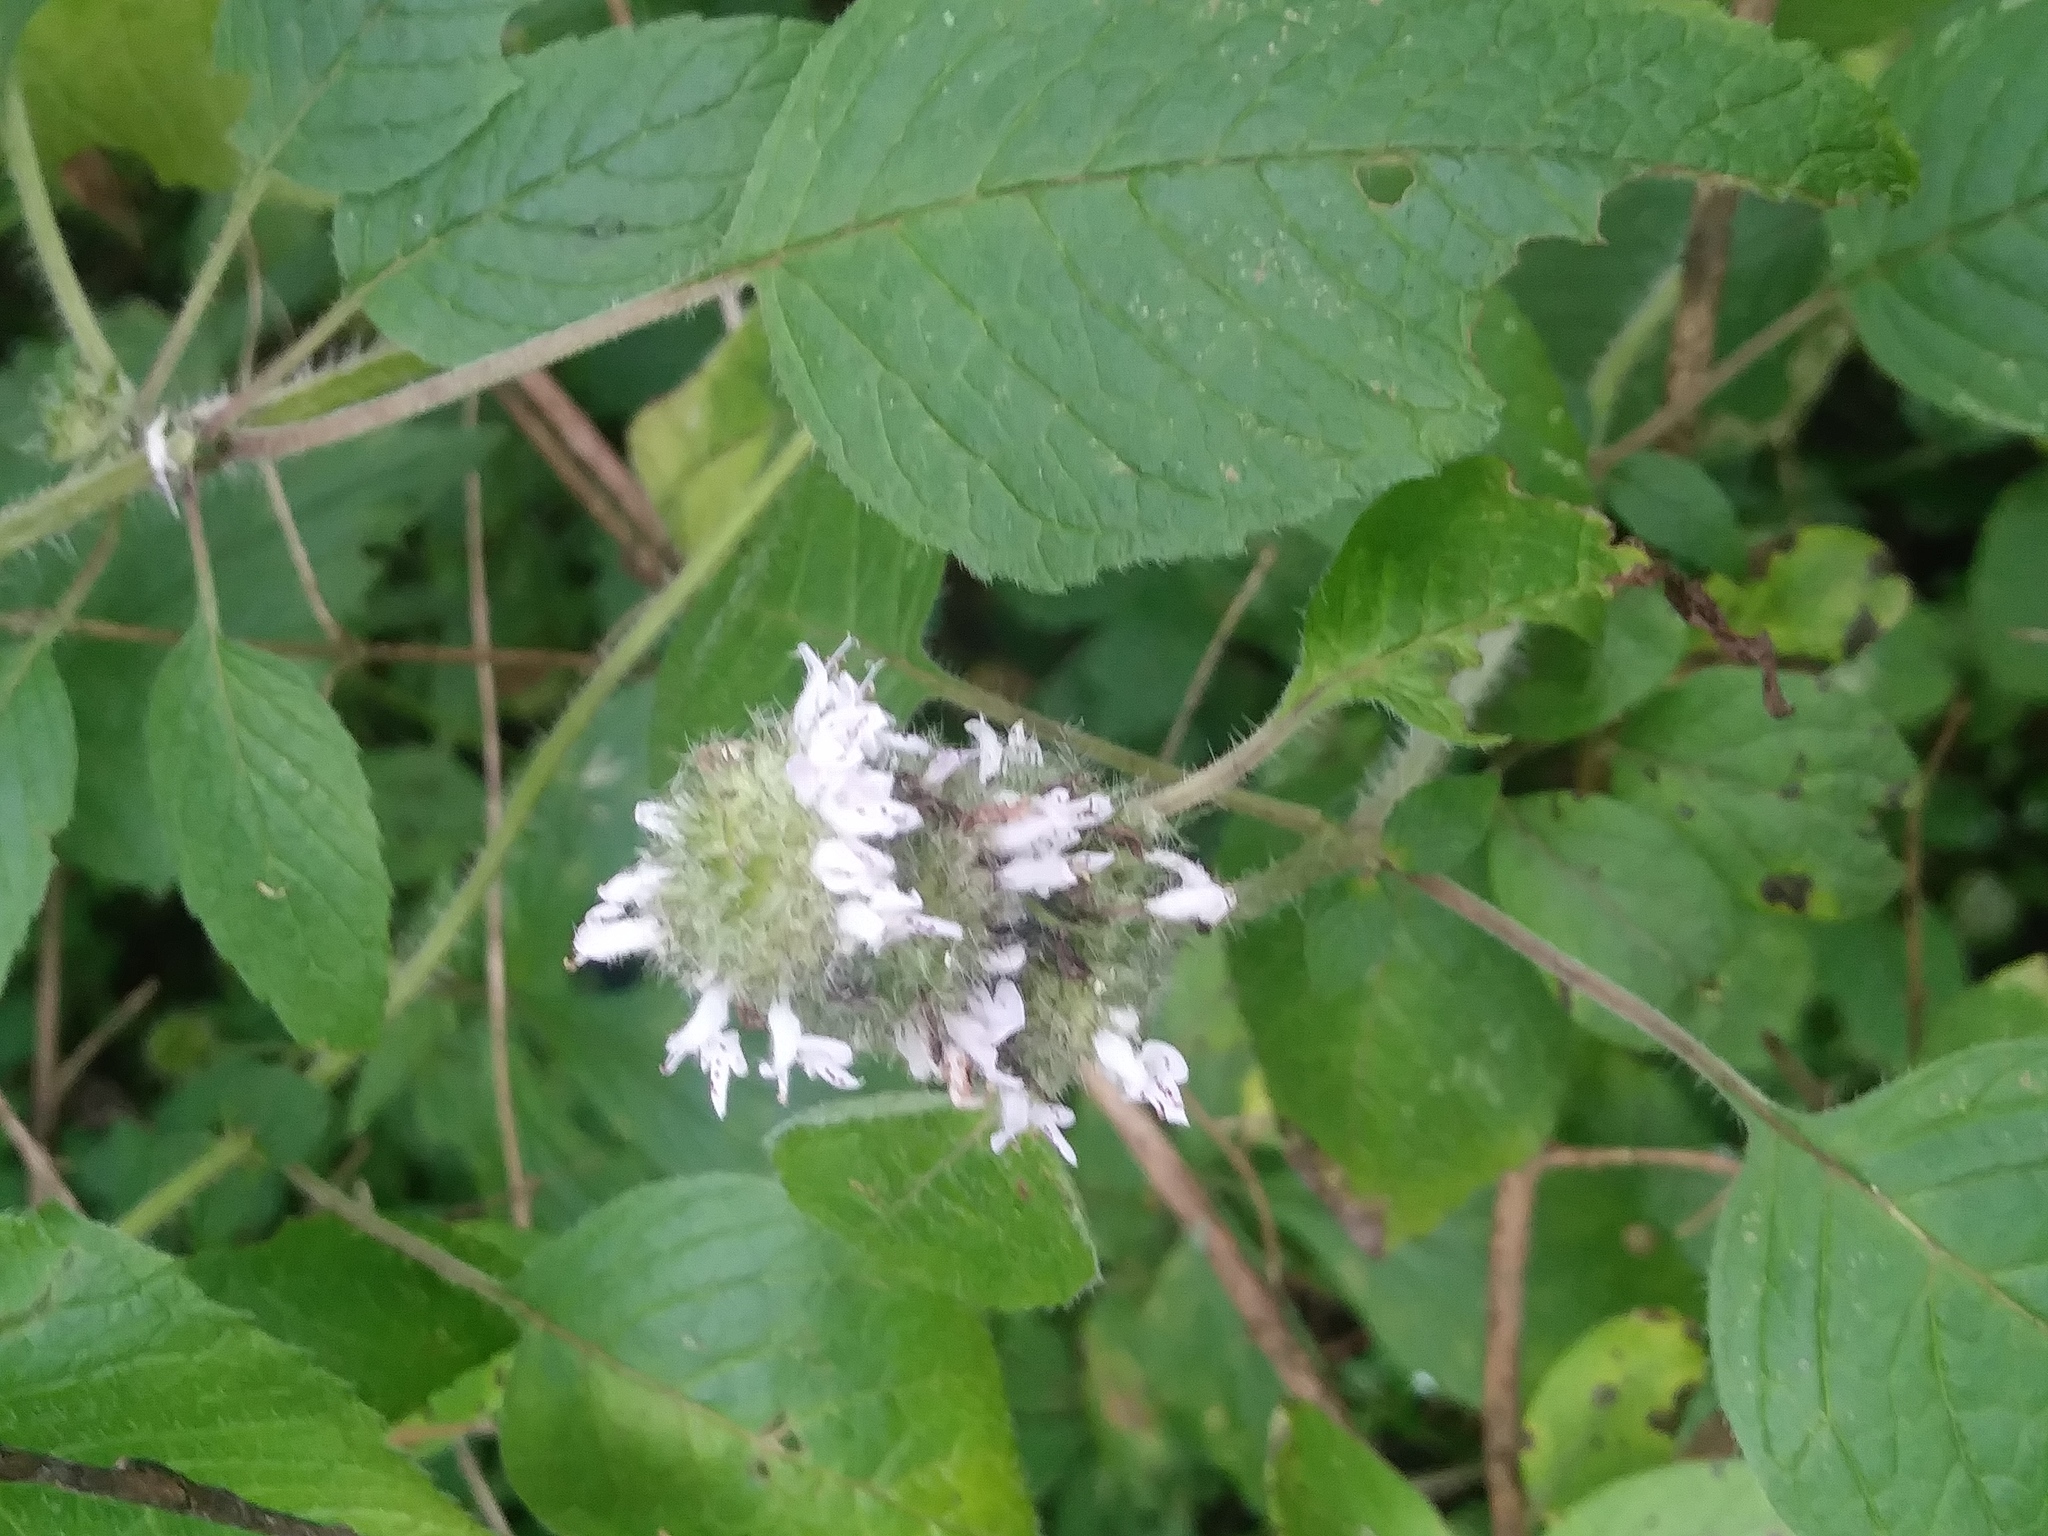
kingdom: Plantae
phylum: Tracheophyta
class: Magnoliopsida
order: Lamiales
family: Lamiaceae
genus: Blephilia
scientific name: Blephilia hirsuta
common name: Hairy blephilia
